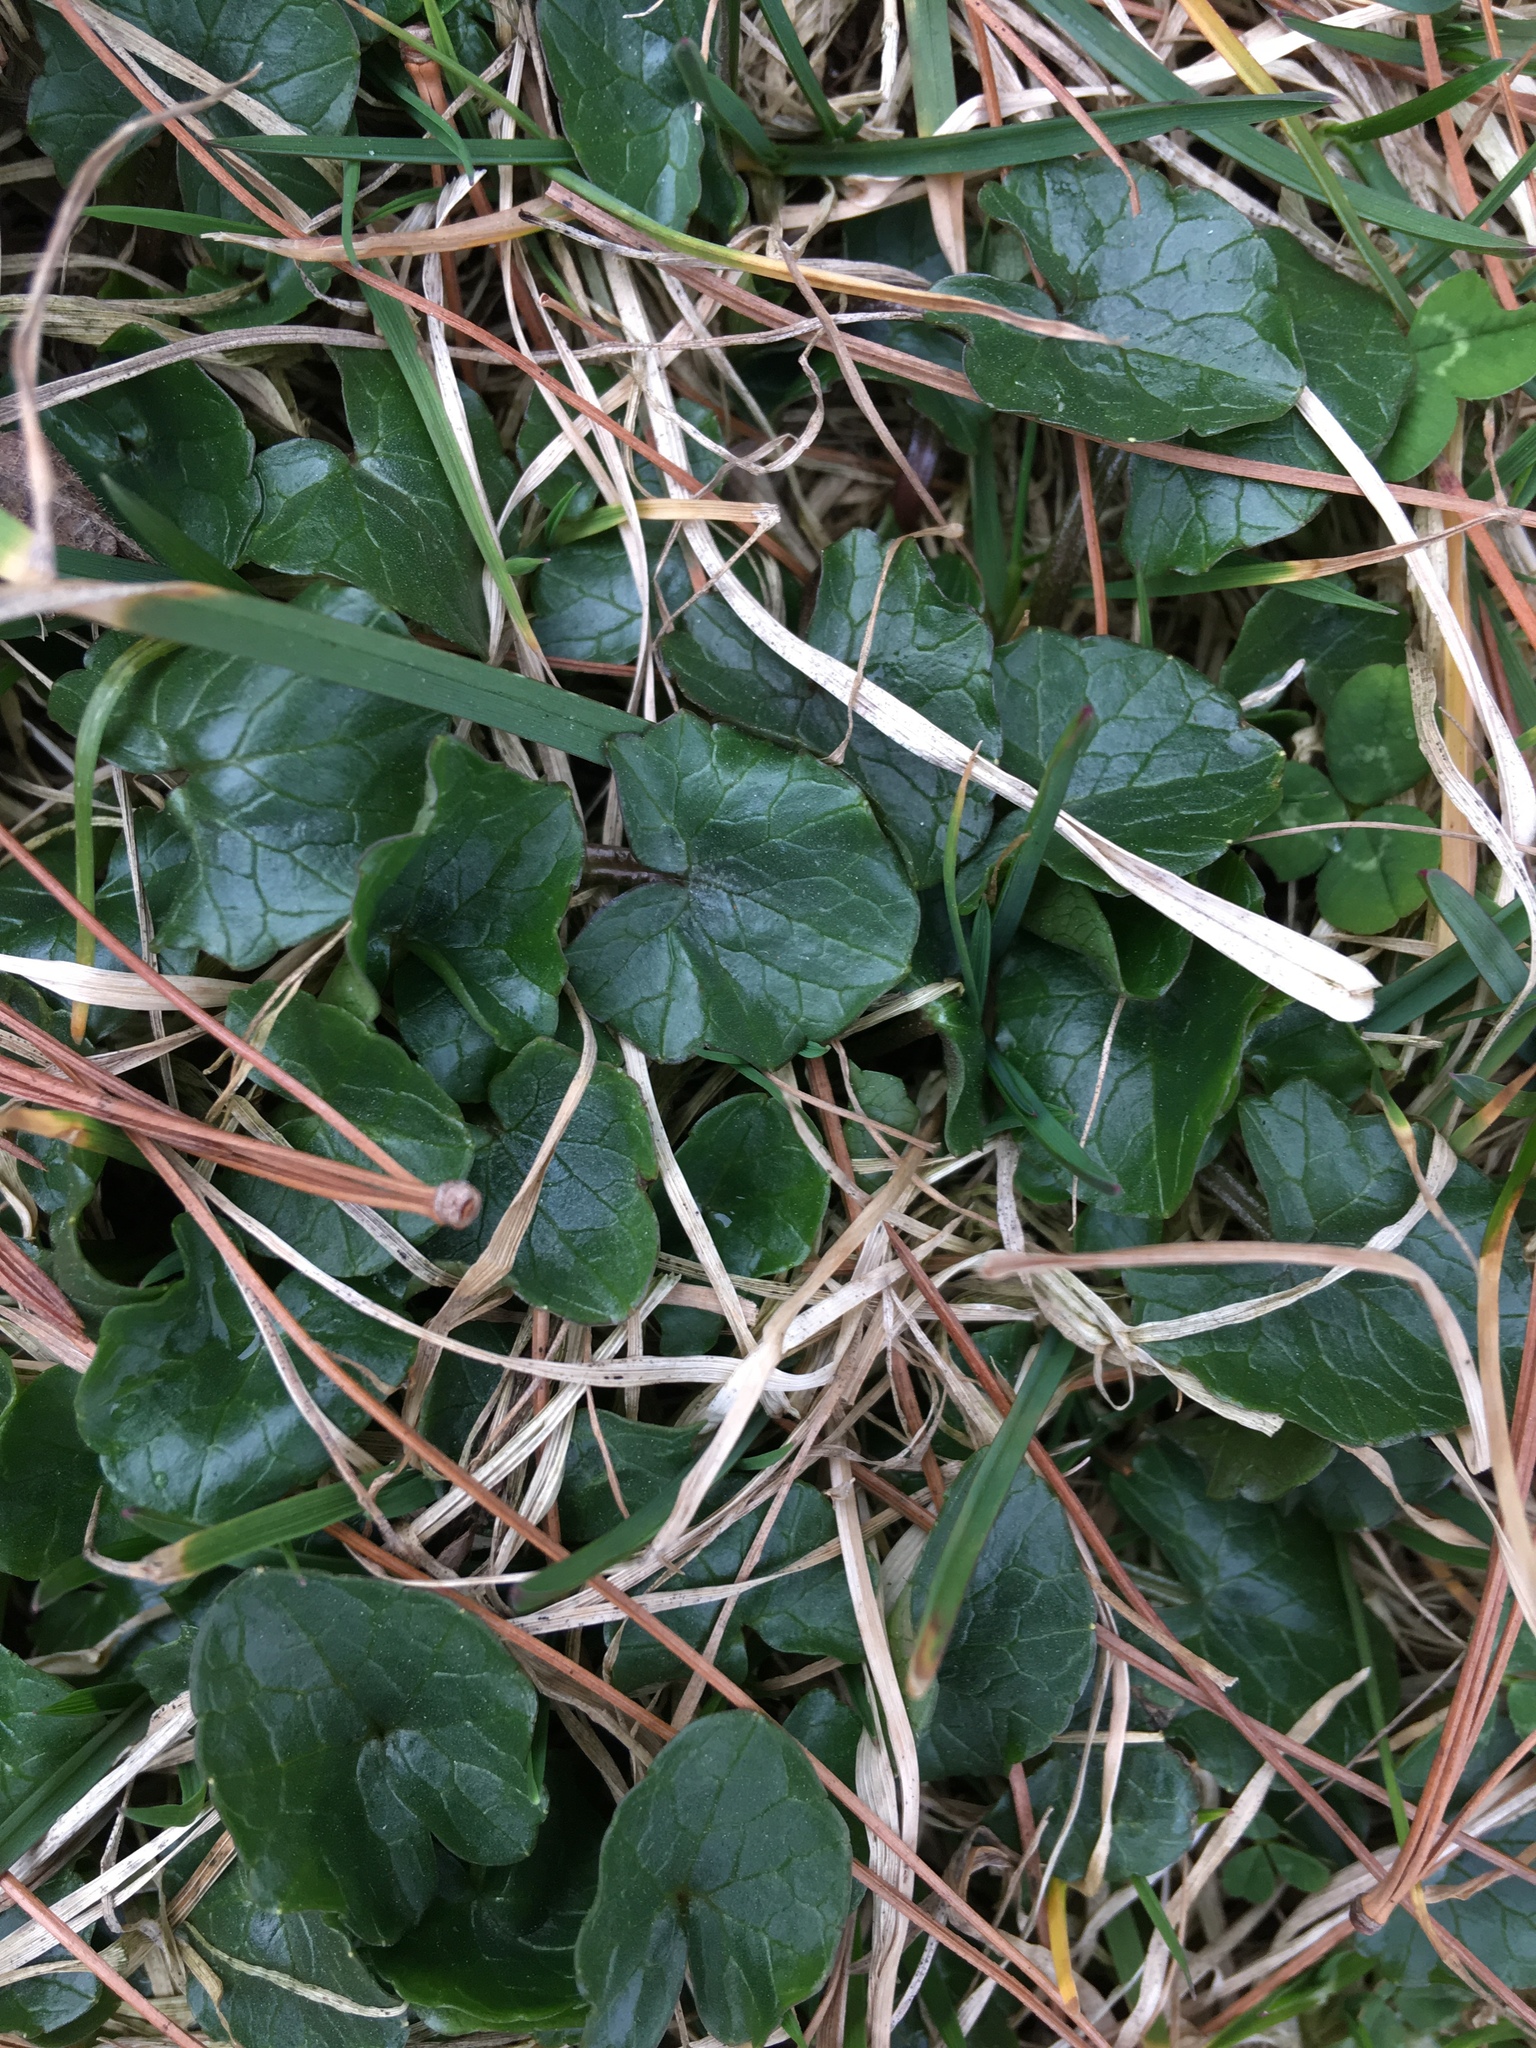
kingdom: Plantae
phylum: Tracheophyta
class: Magnoliopsida
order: Ranunculales
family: Ranunculaceae
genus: Ficaria
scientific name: Ficaria verna
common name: Lesser celandine
